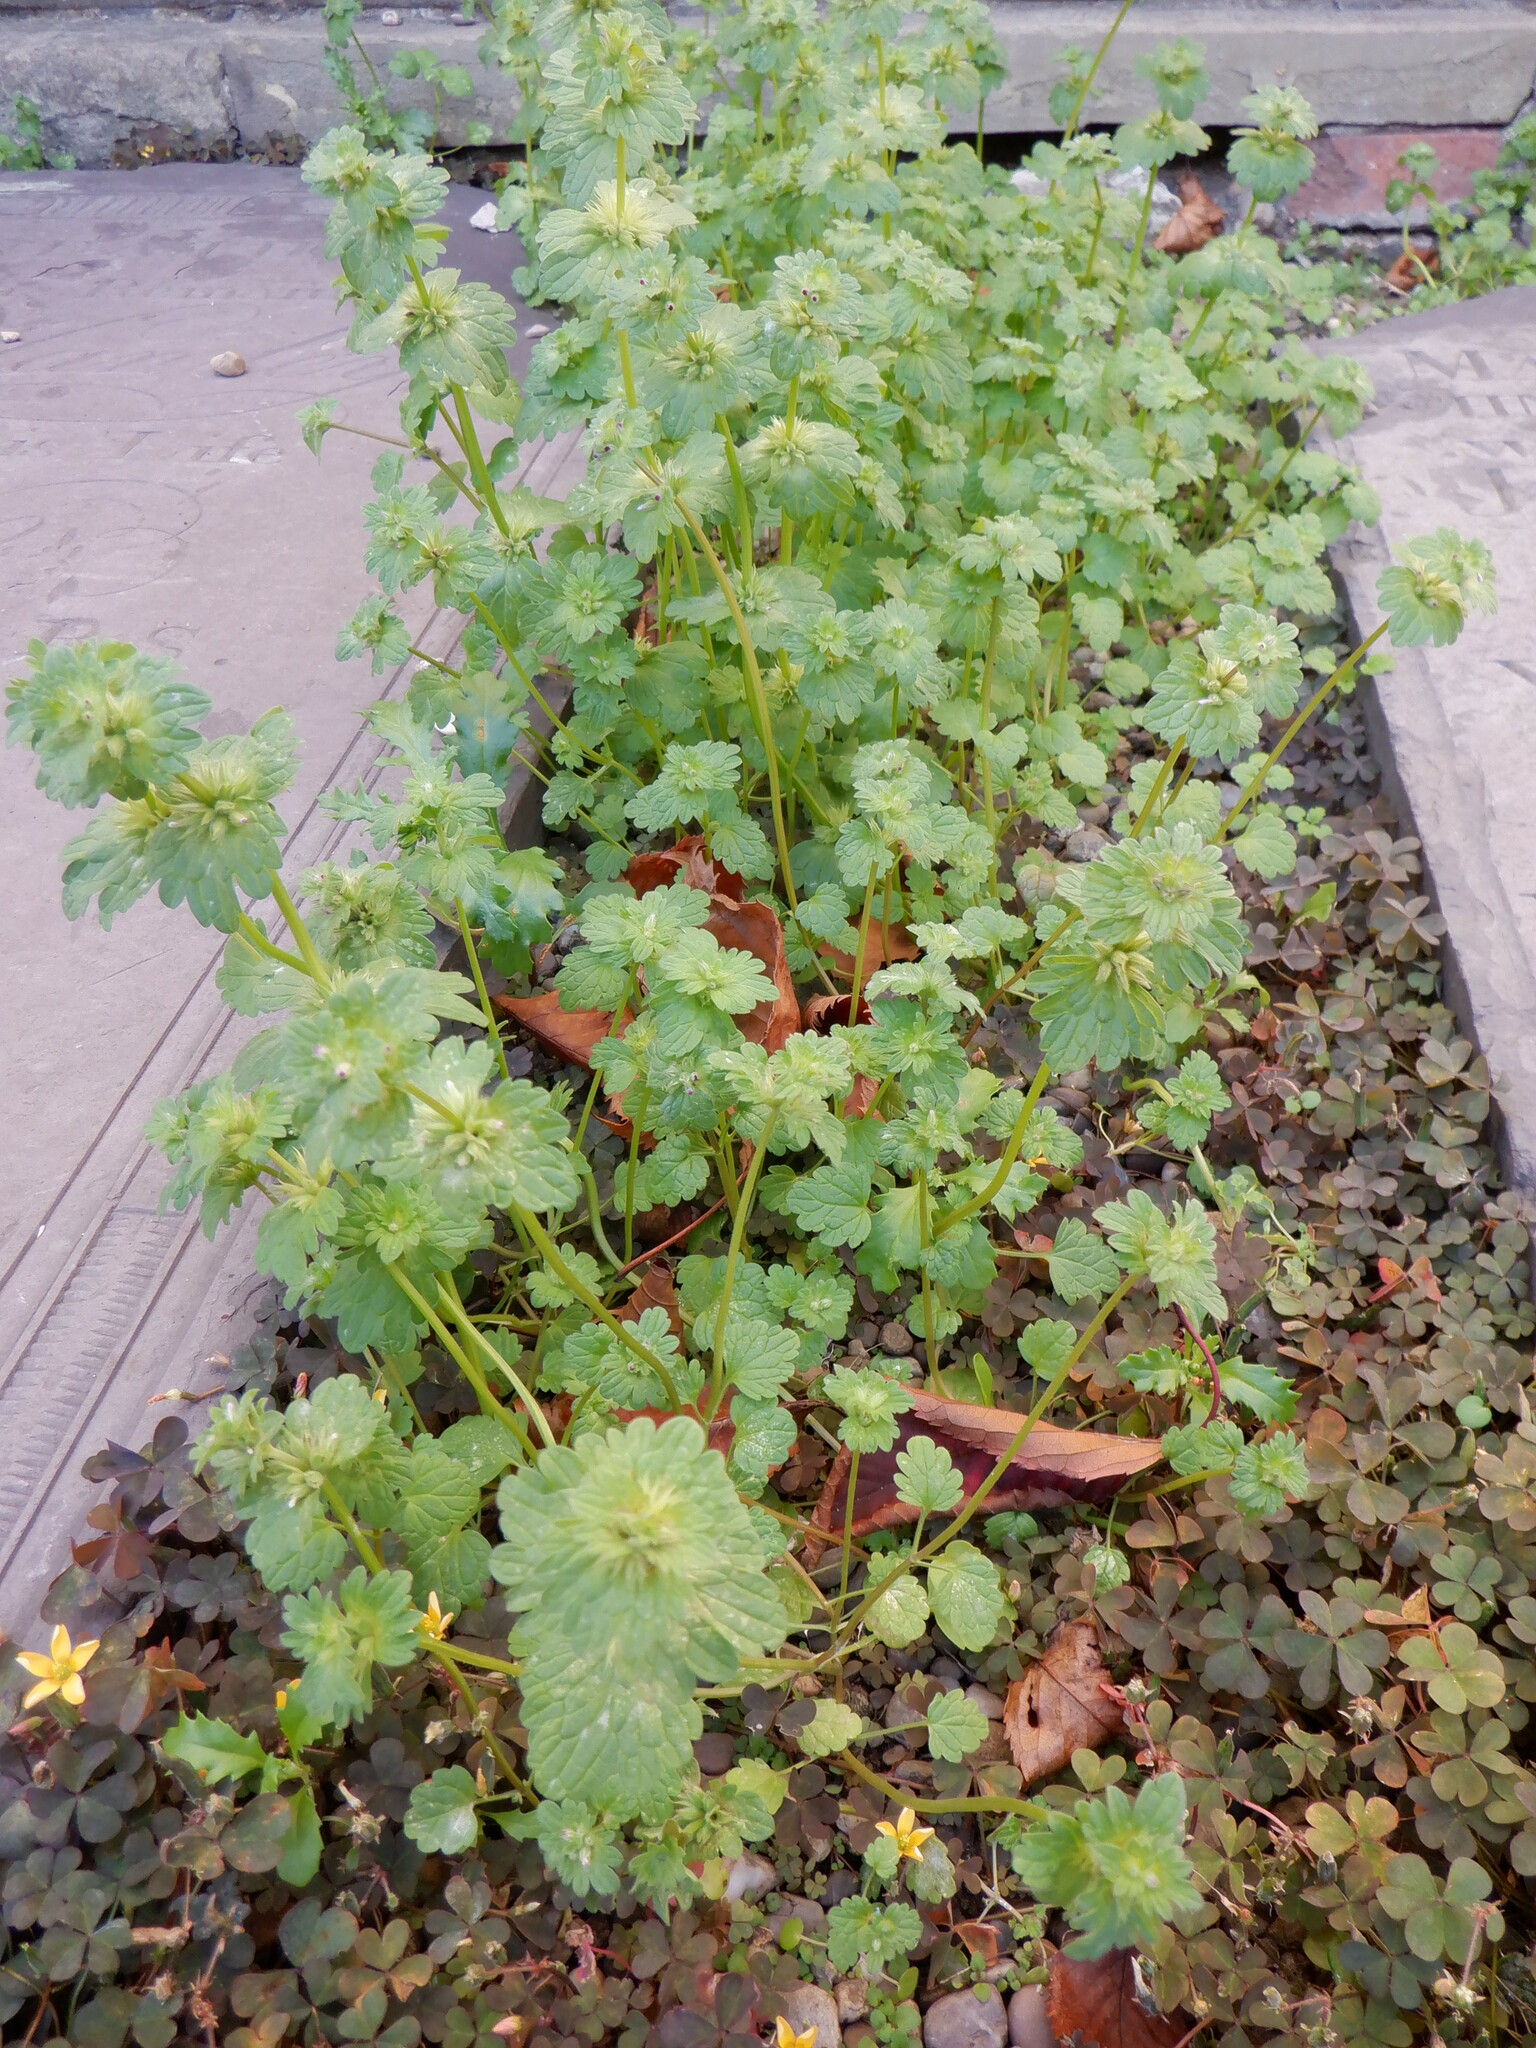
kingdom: Plantae
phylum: Tracheophyta
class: Magnoliopsida
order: Lamiales
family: Lamiaceae
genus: Lamium
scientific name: Lamium amplexicaule
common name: Henbit dead-nettle
